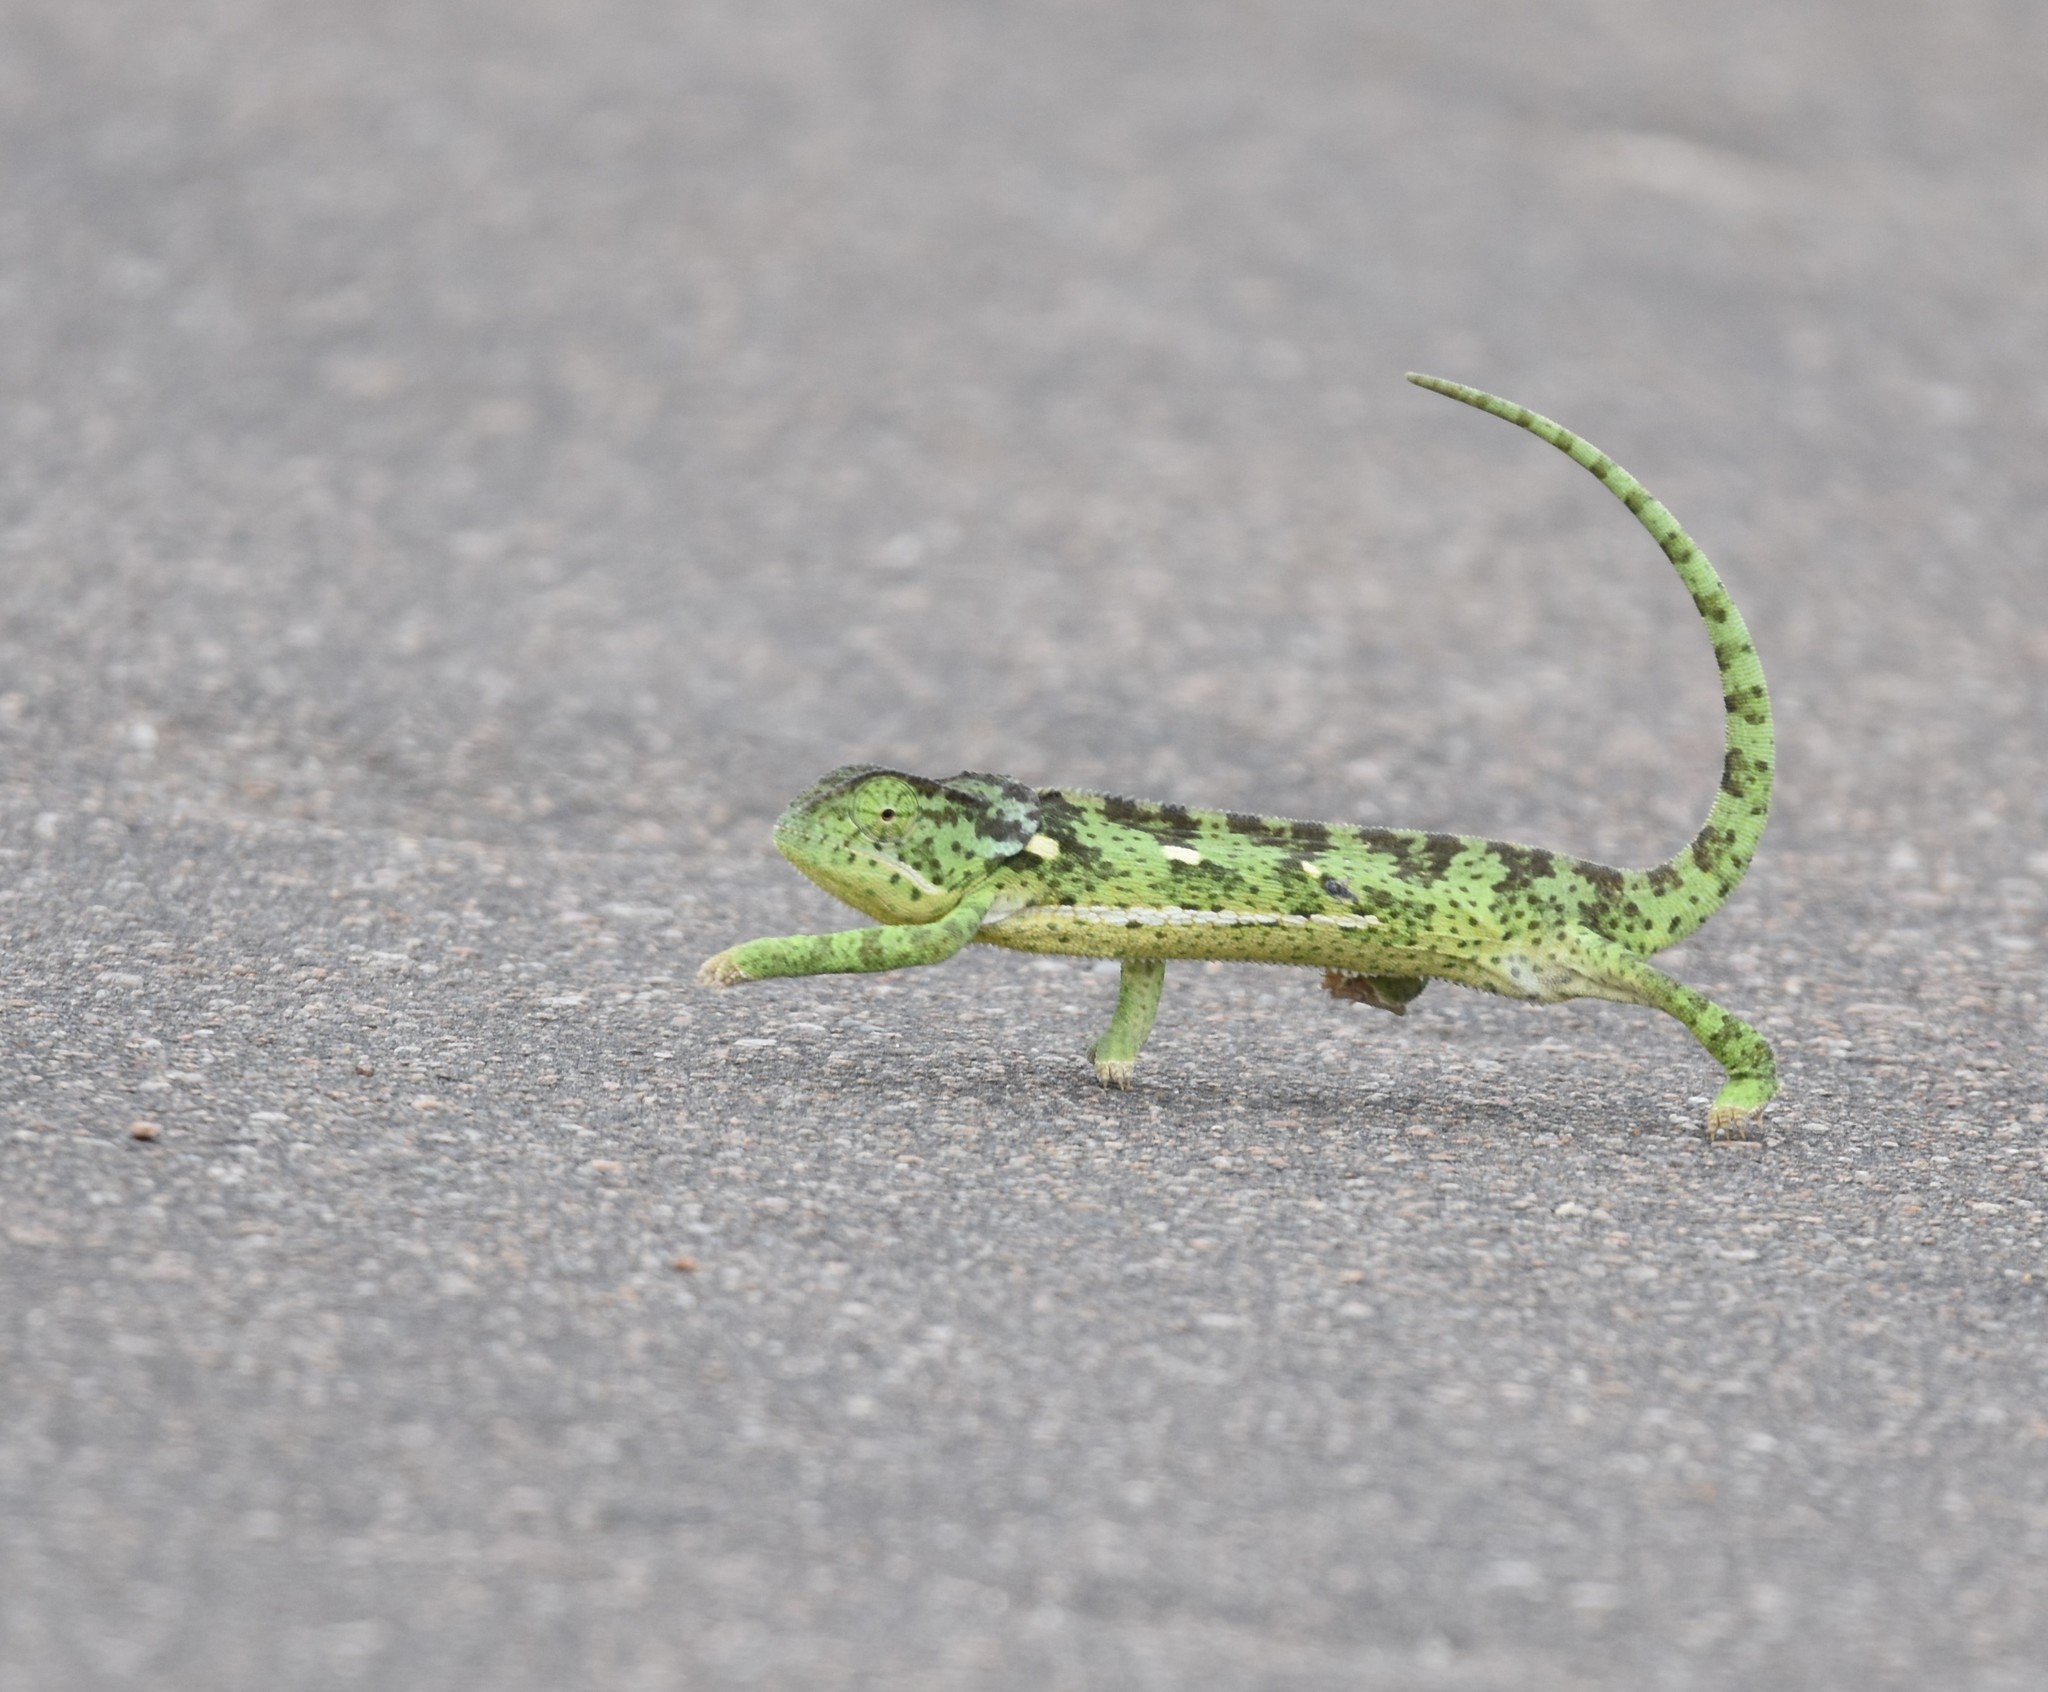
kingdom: Animalia
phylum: Chordata
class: Squamata
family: Chamaeleonidae
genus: Chamaeleo
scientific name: Chamaeleo dilepis
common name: Flapneck chameleon
